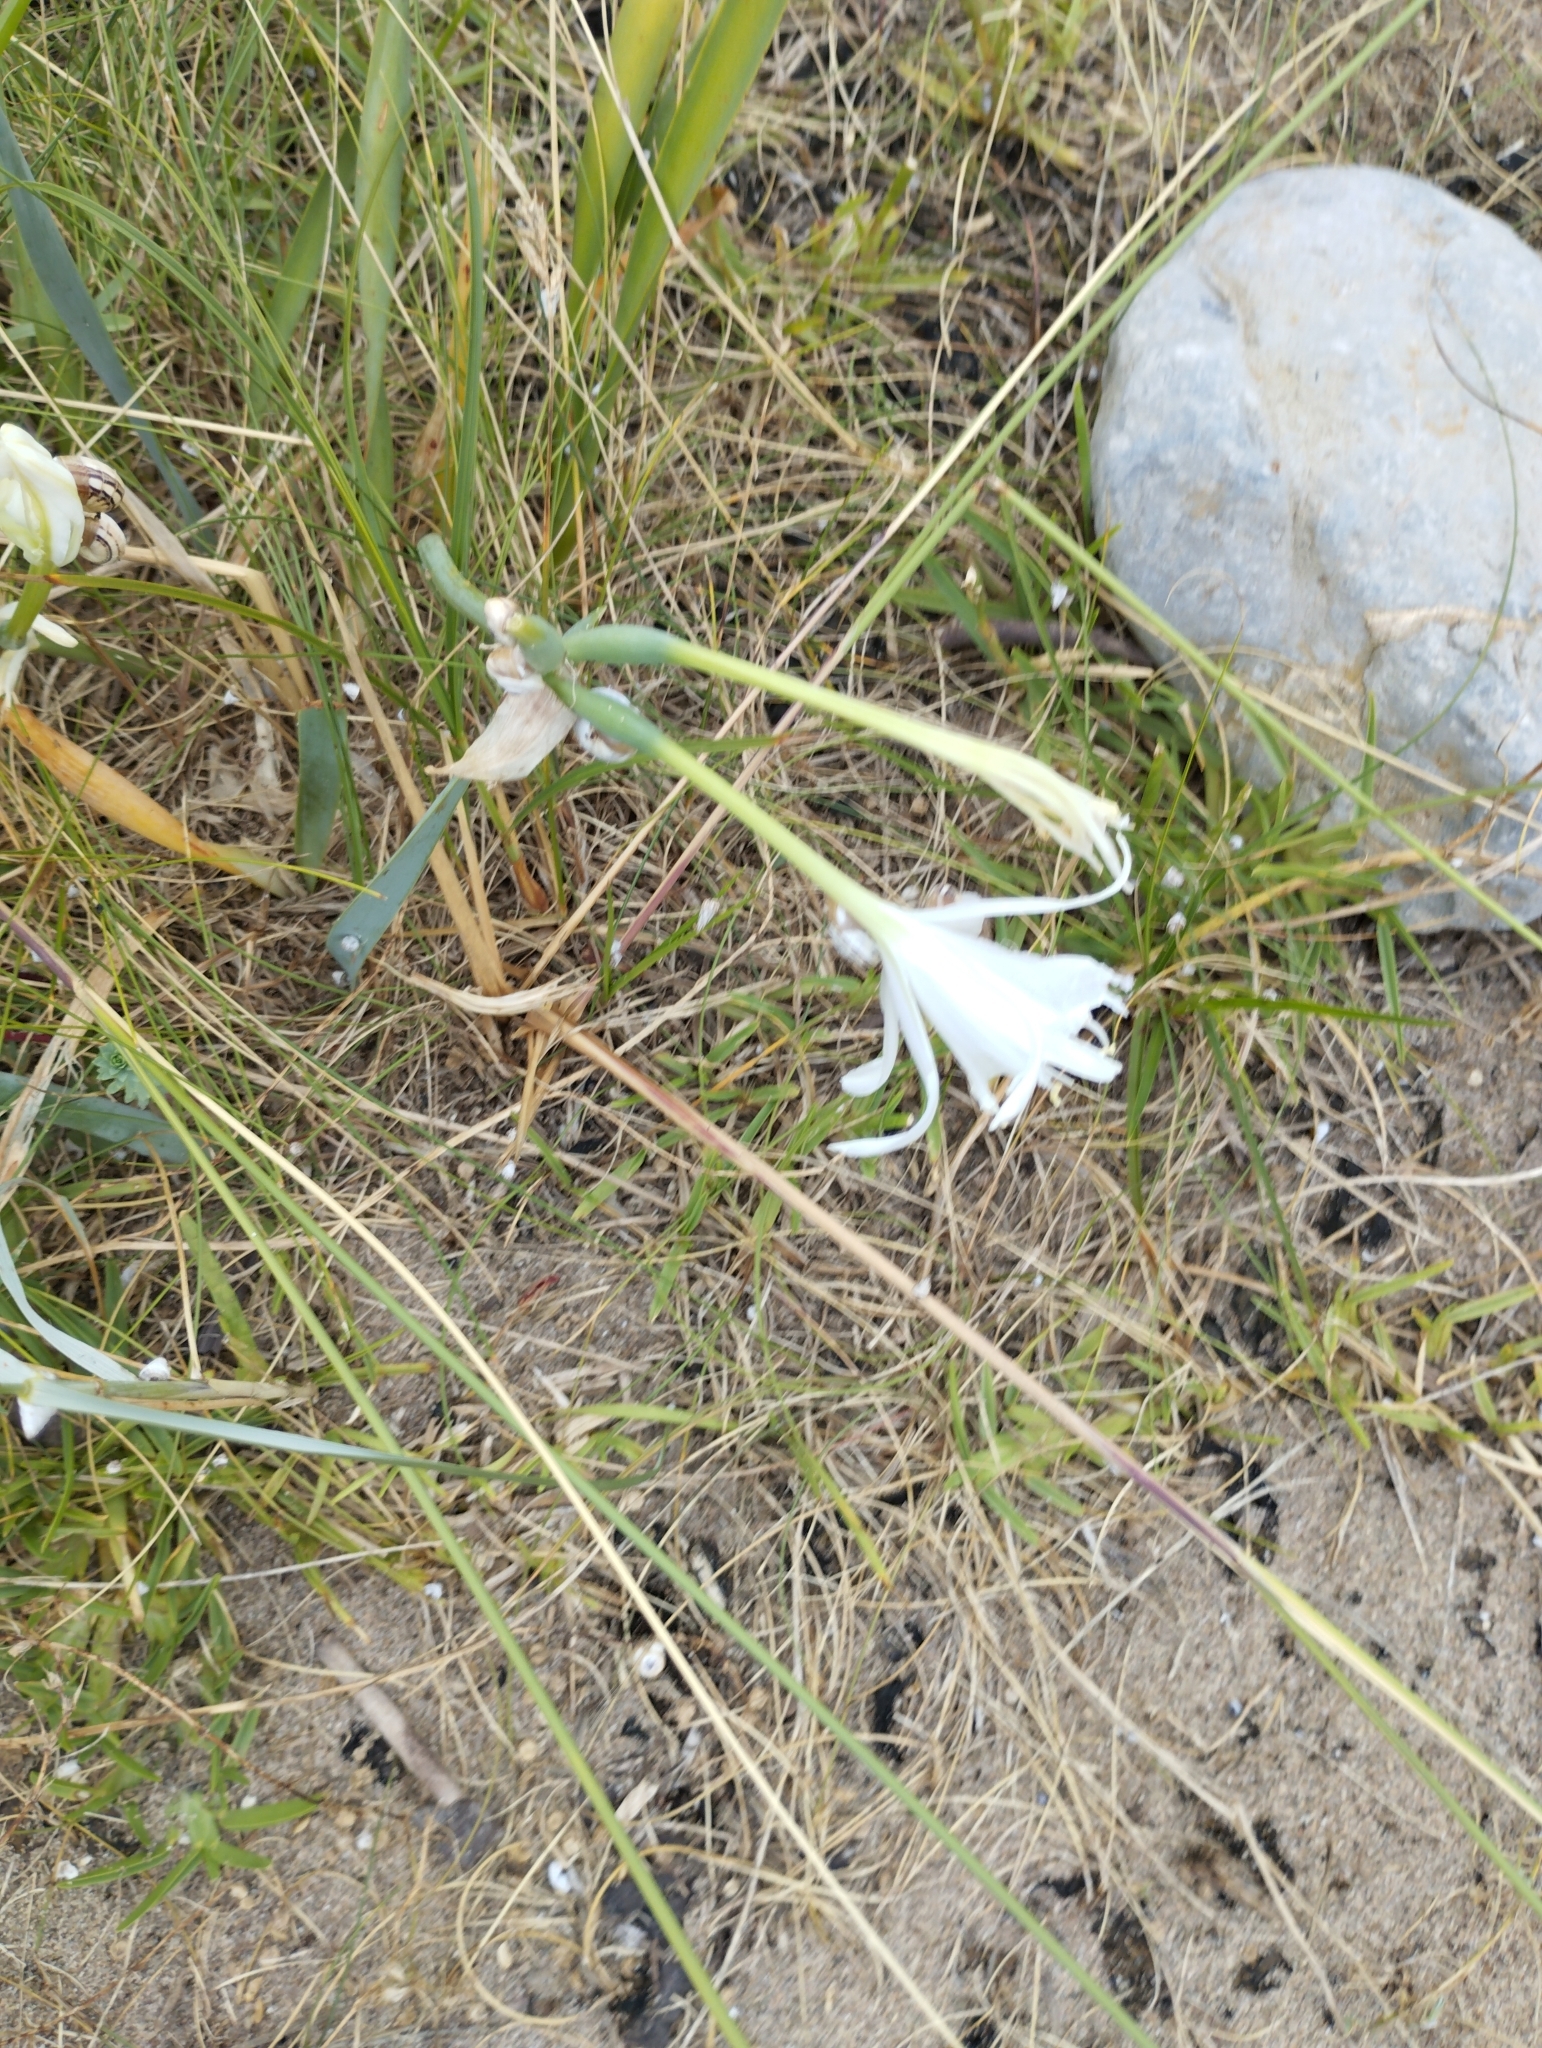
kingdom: Plantae
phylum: Tracheophyta
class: Liliopsida
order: Asparagales
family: Amaryllidaceae
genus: Pancratium
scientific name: Pancratium maritimum
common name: Sea-daffodil
